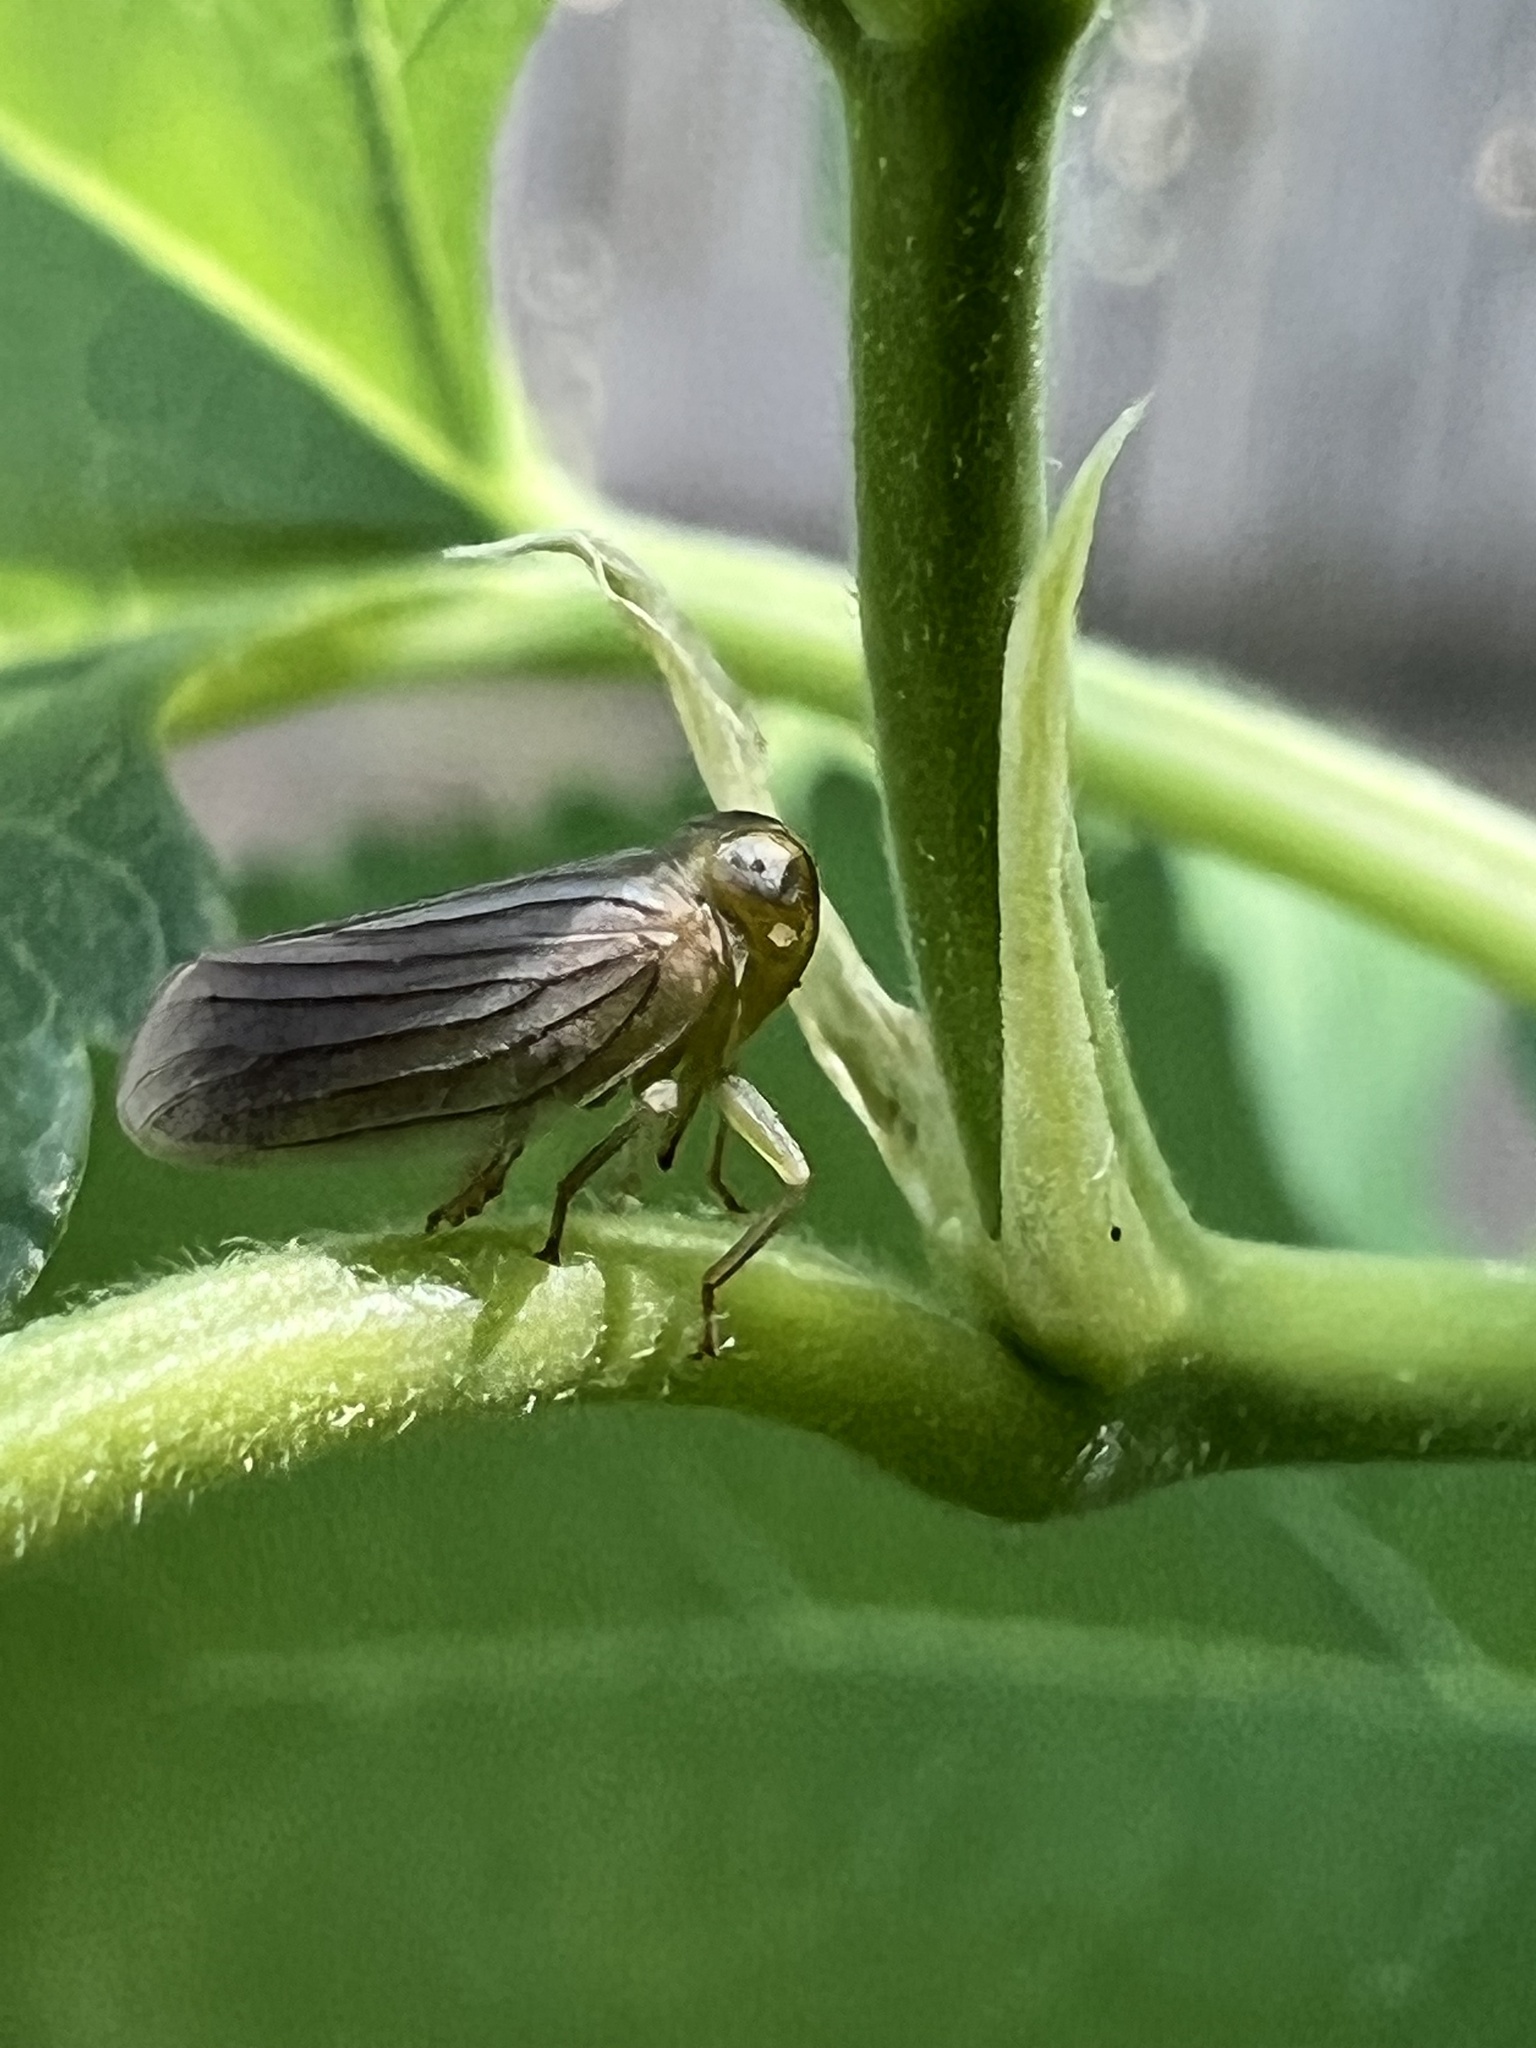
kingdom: Animalia
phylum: Arthropoda
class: Insecta
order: Hemiptera
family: Issidae
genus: Aplos
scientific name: Aplos simplex
